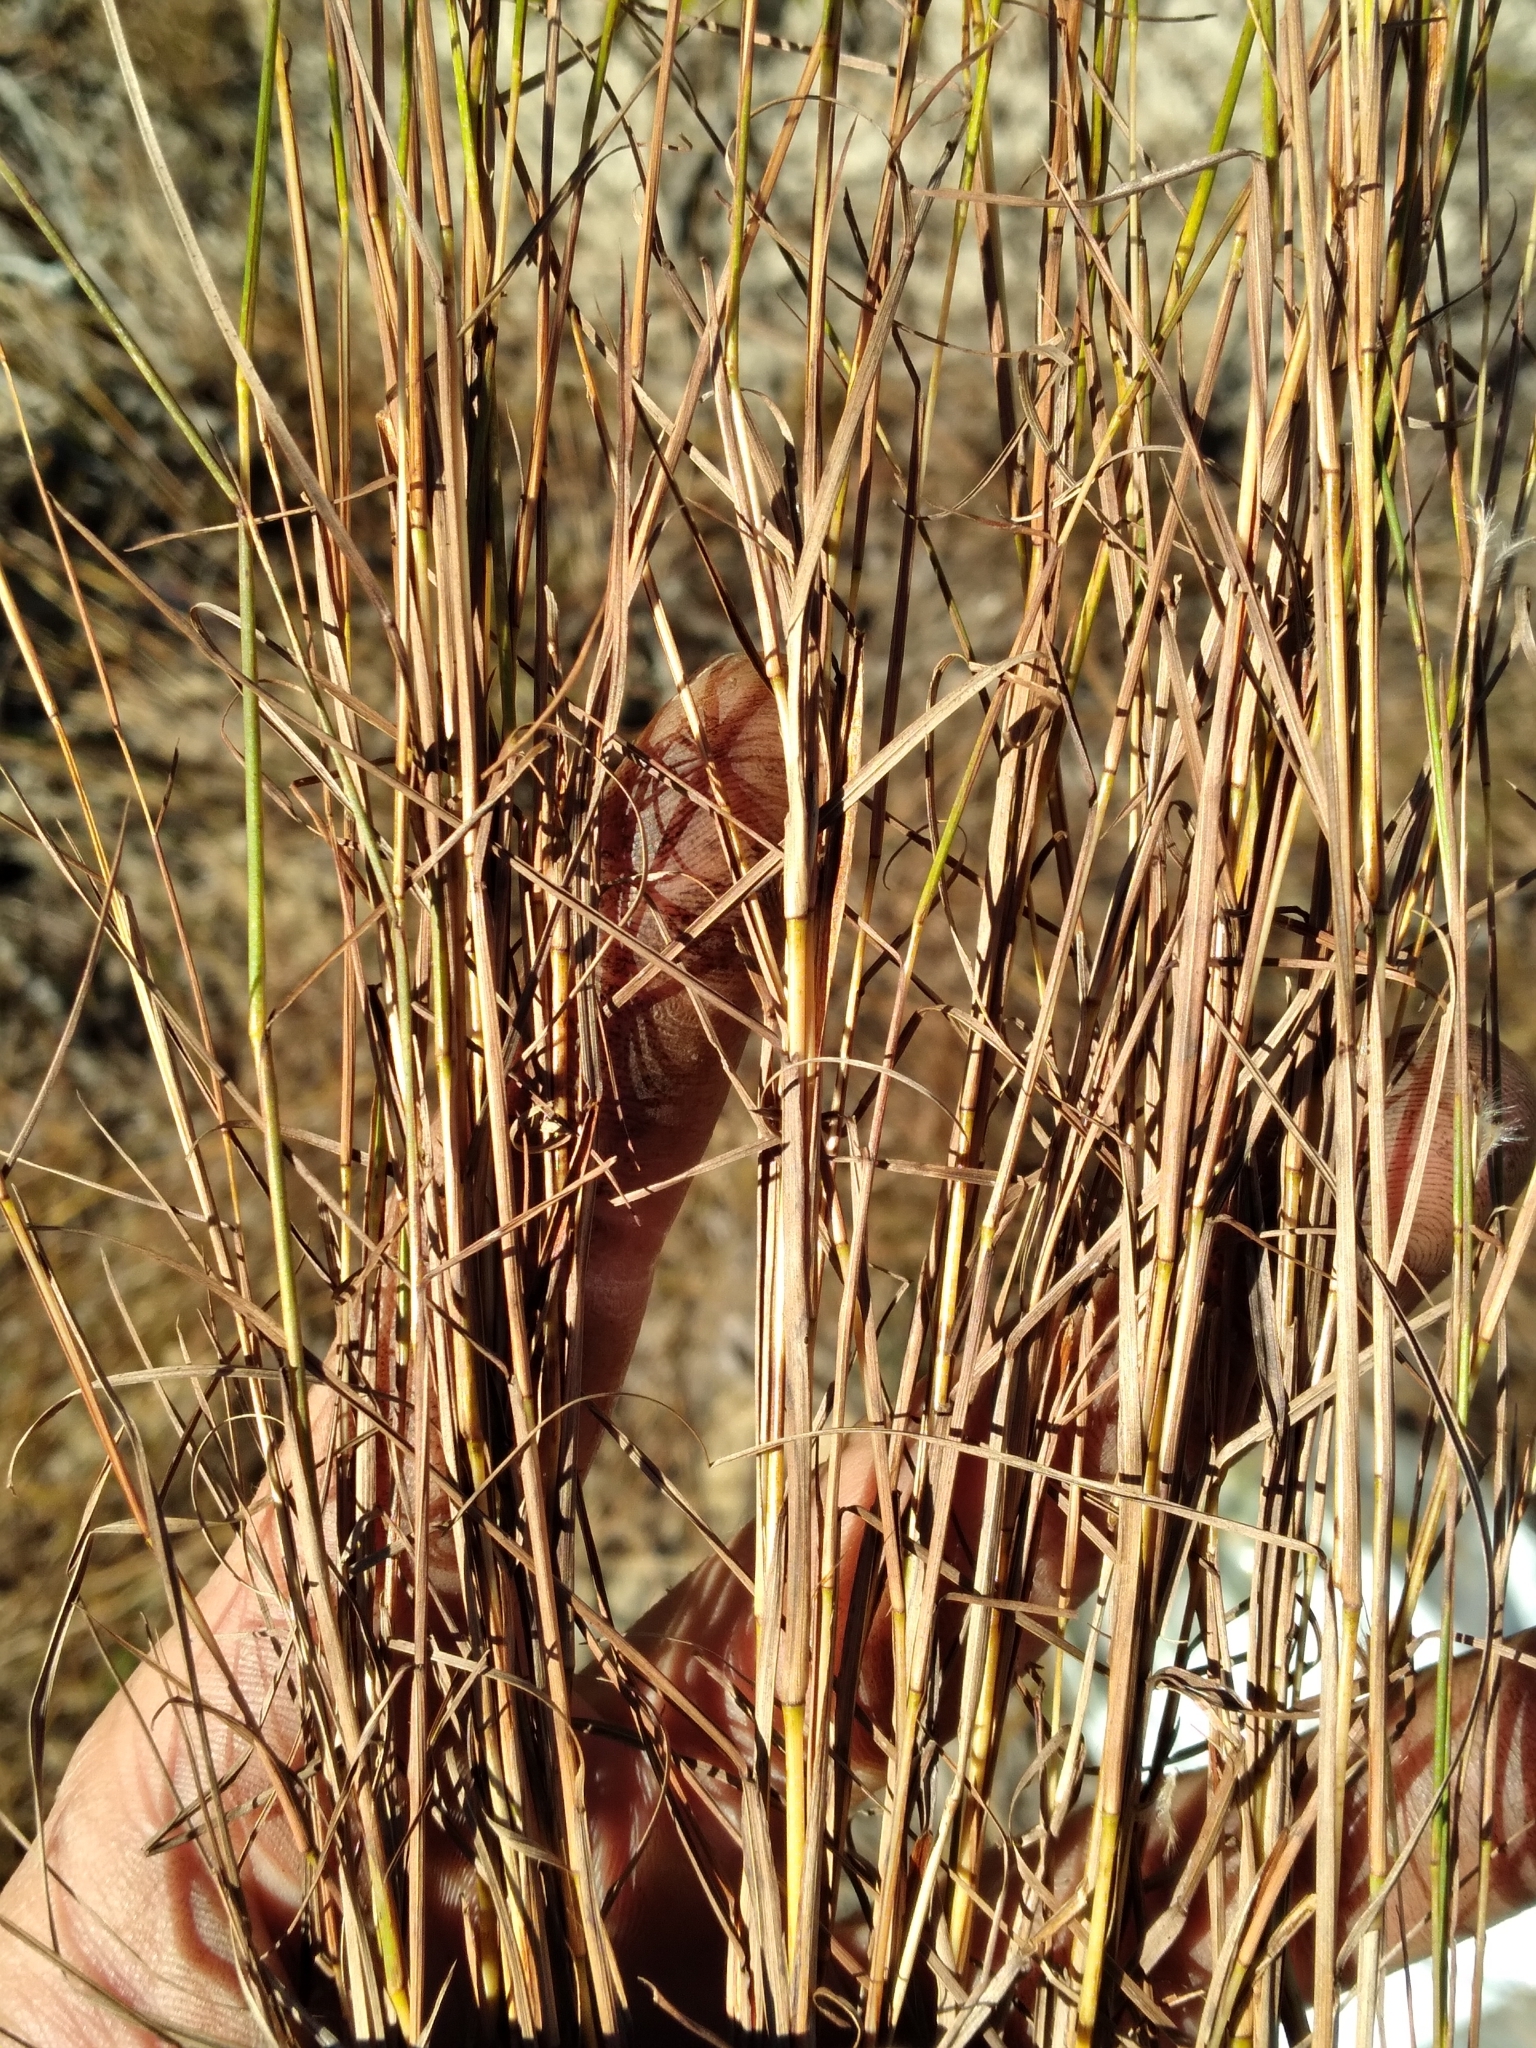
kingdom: Plantae
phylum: Tracheophyta
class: Liliopsida
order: Poales
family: Poaceae
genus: Schizachyrium
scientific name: Schizachyrium niveum
